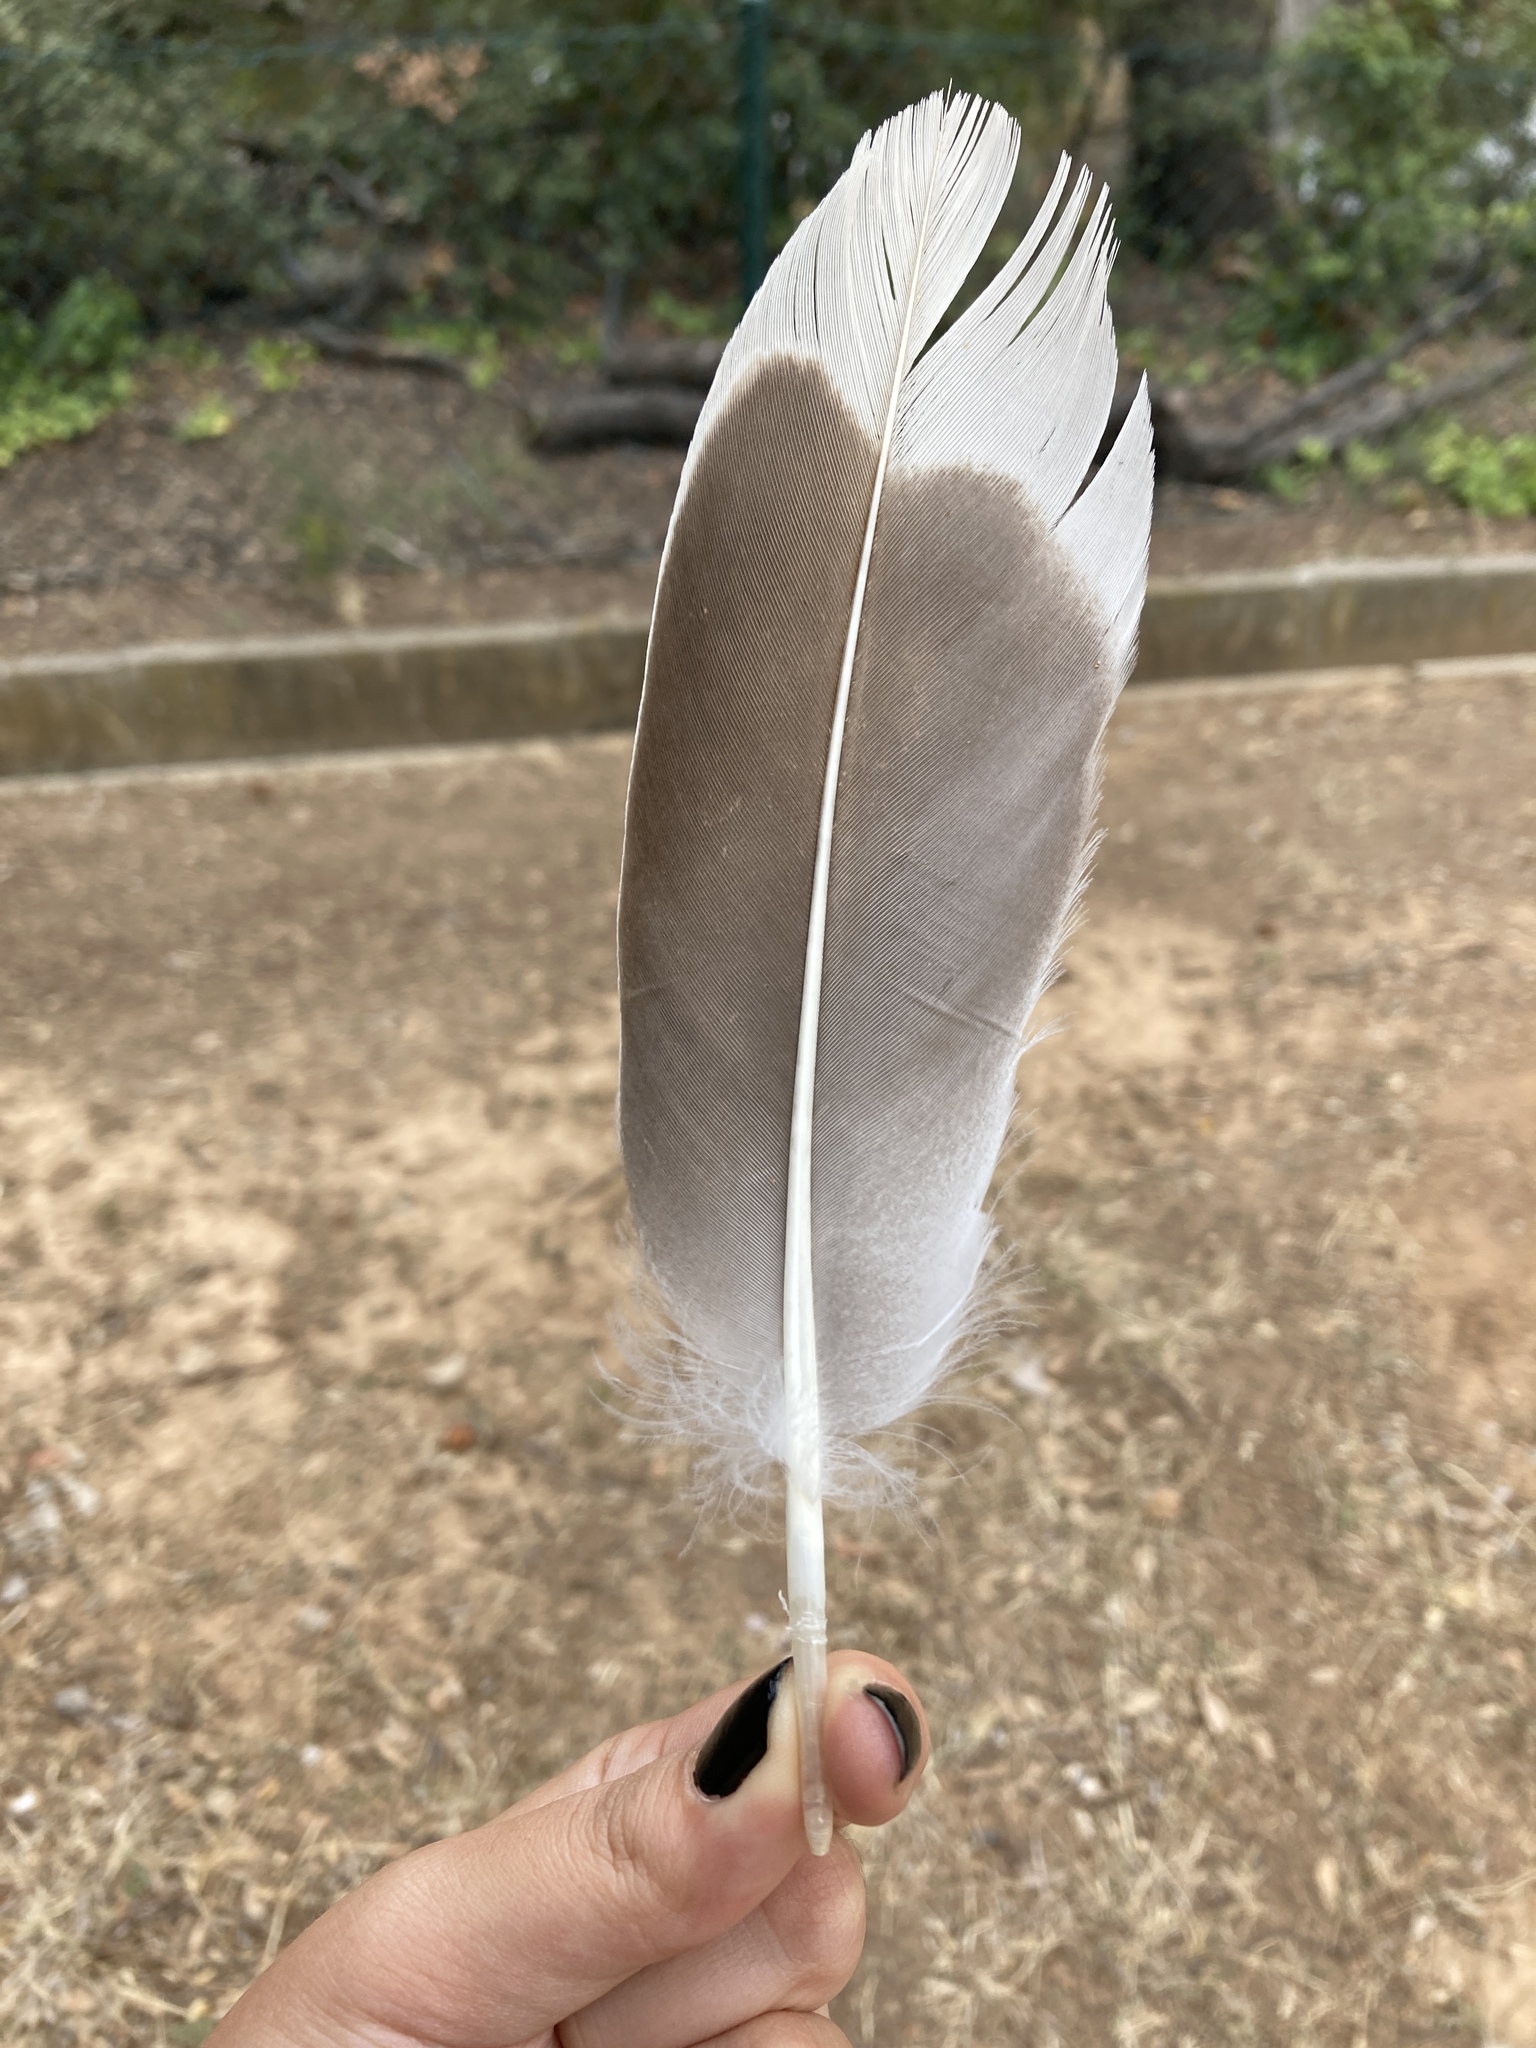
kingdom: Animalia
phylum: Chordata
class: Aves
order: Anseriformes
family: Anatidae
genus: Anser
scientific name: Anser anser
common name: Greylag goose
